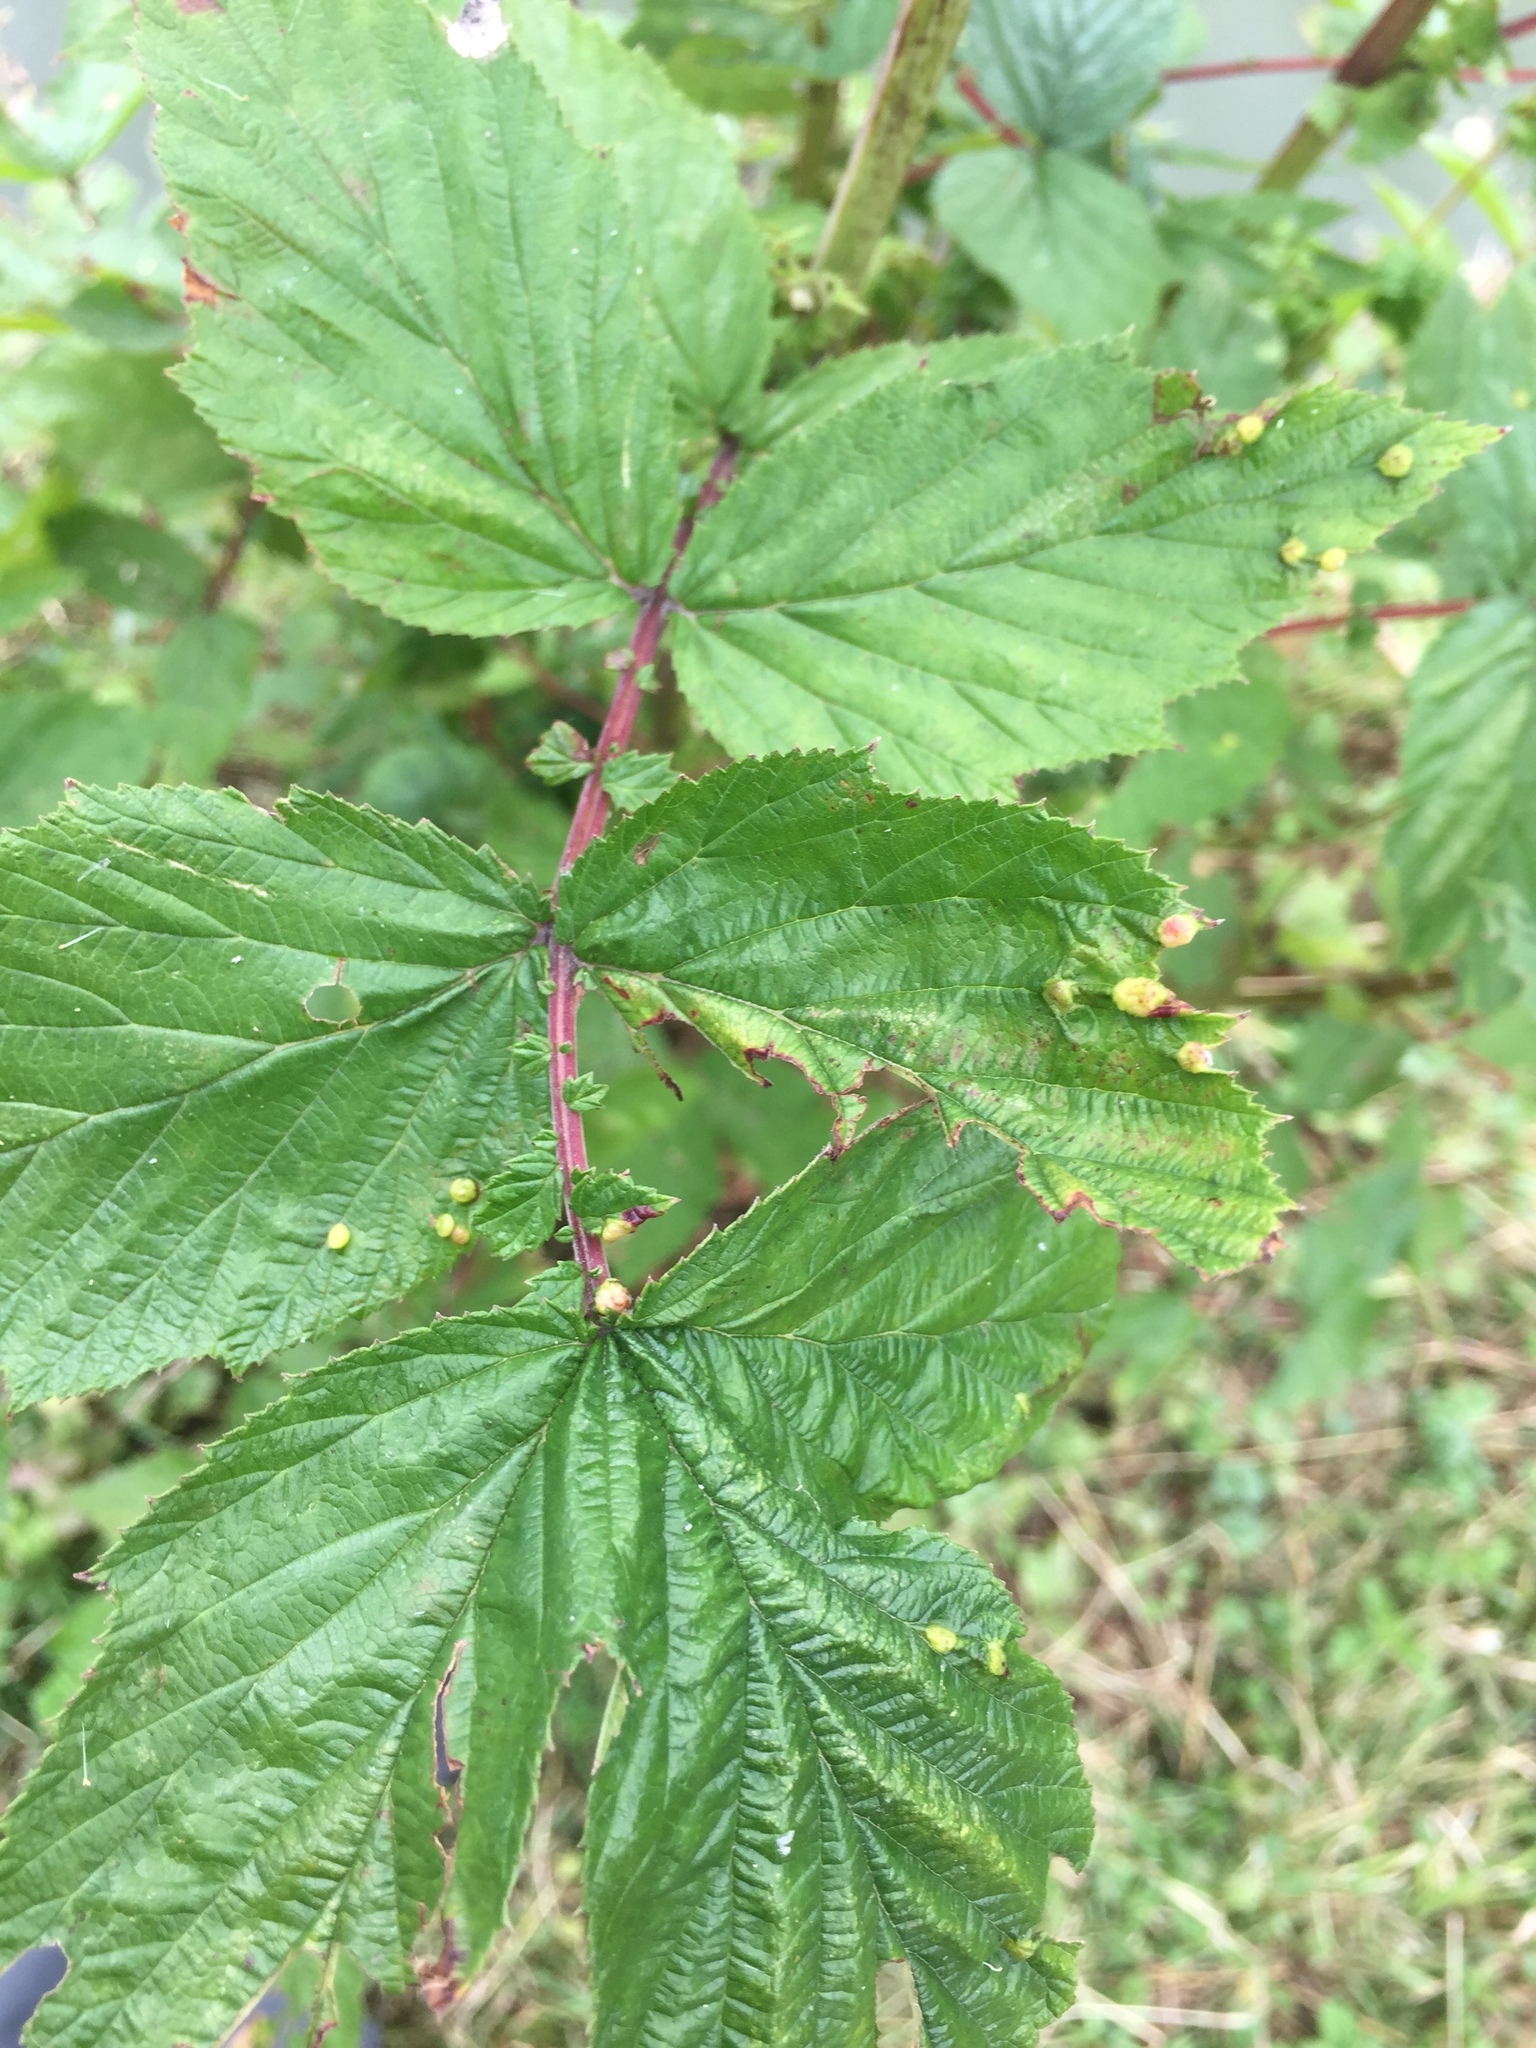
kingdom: Animalia
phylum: Arthropoda
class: Insecta
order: Diptera
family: Cecidomyiidae
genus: Dasineura
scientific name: Dasineura ulmaria
